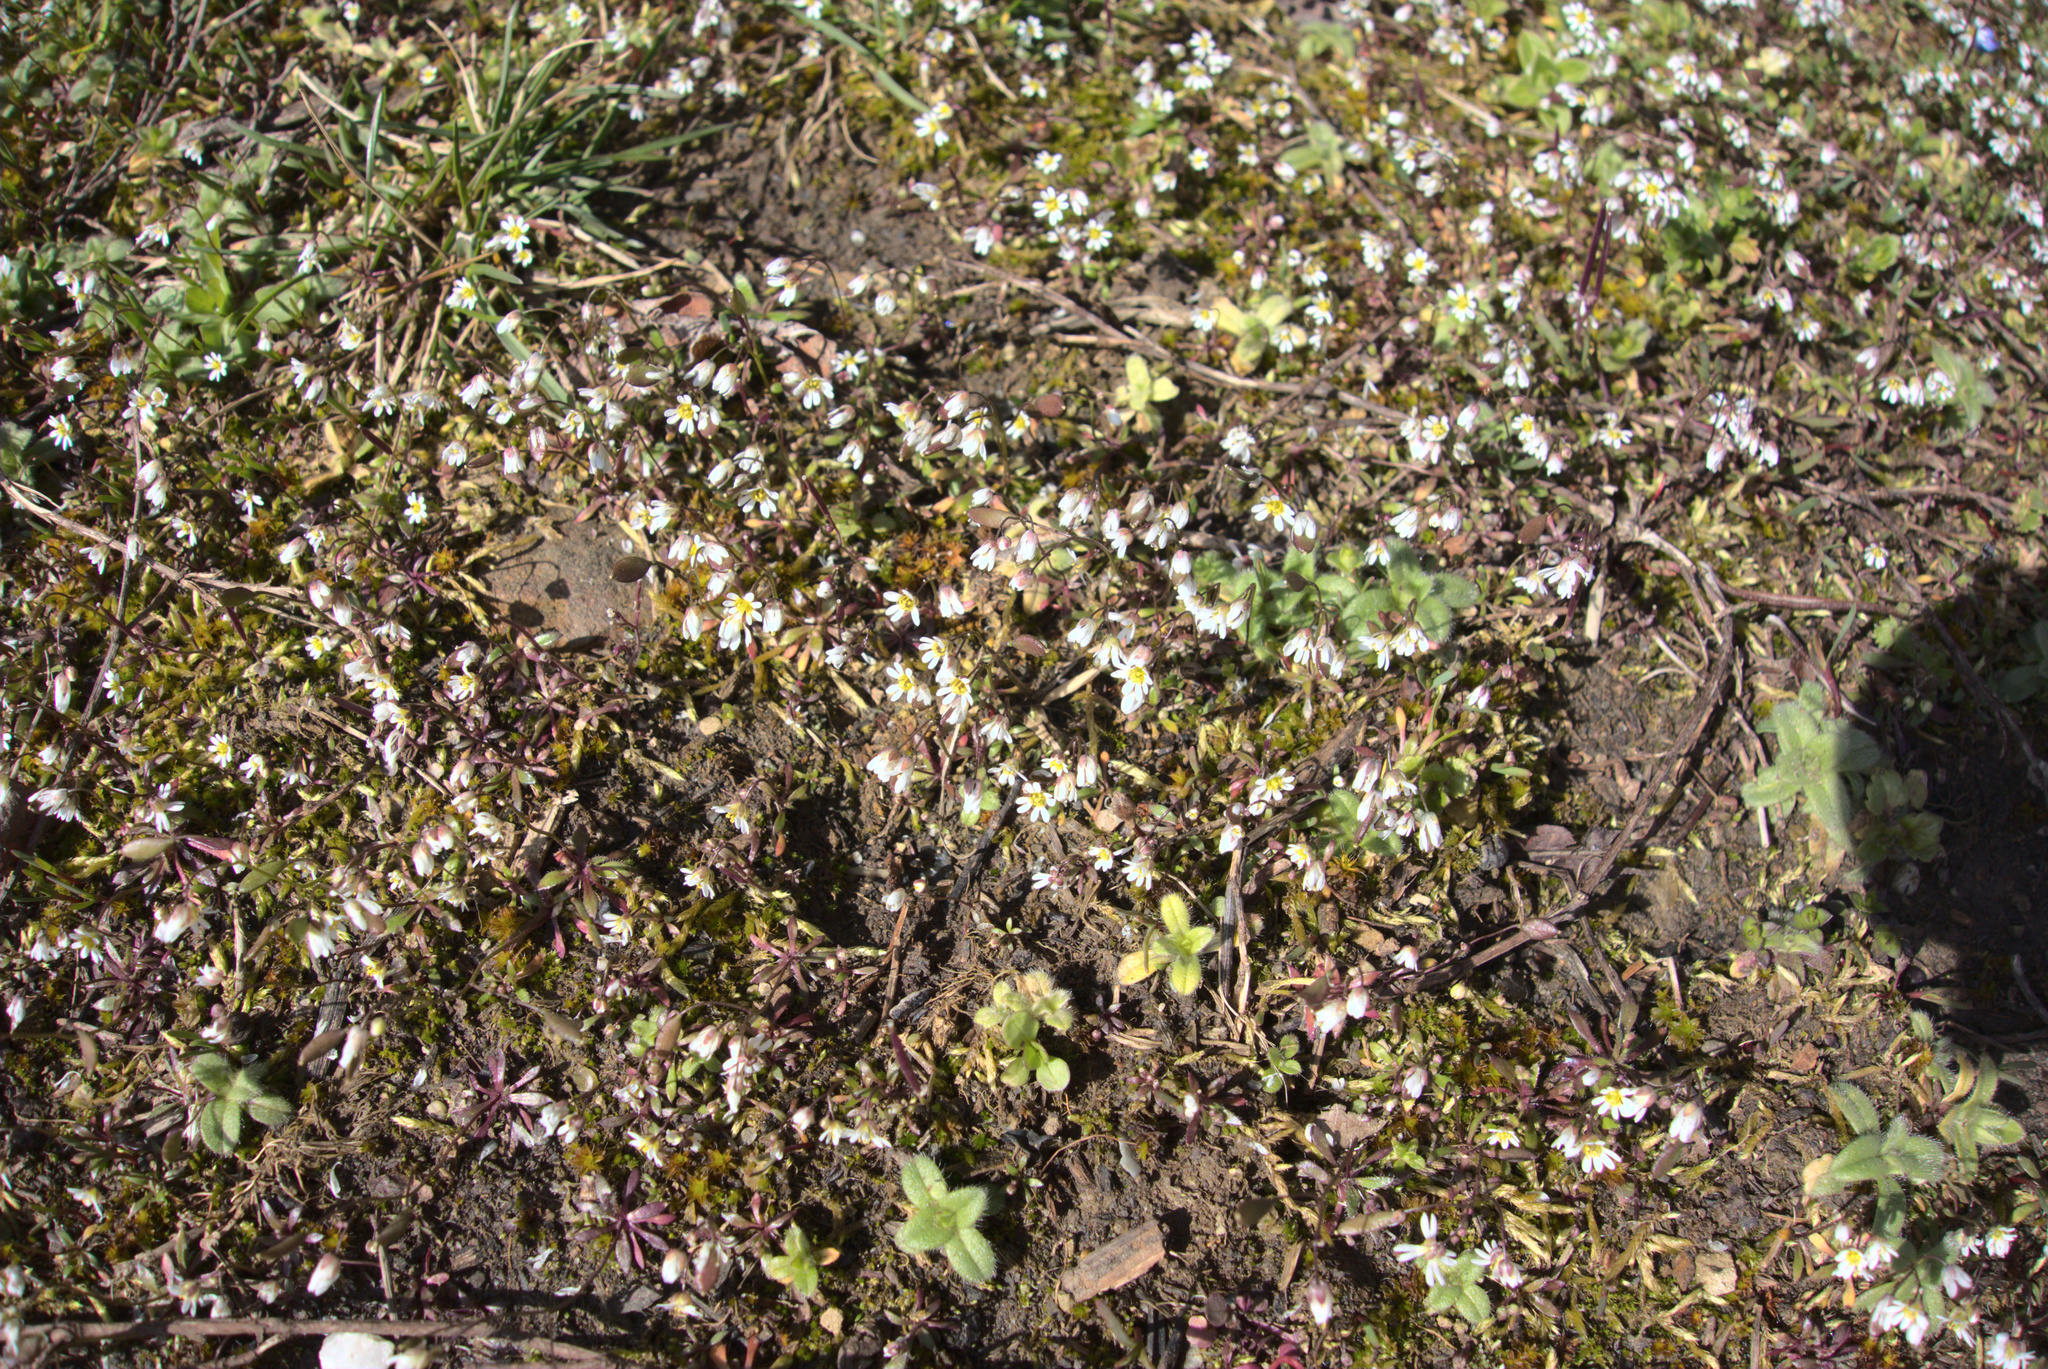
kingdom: Plantae
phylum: Tracheophyta
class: Magnoliopsida
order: Brassicales
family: Brassicaceae
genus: Draba
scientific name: Draba verna
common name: Spring draba
